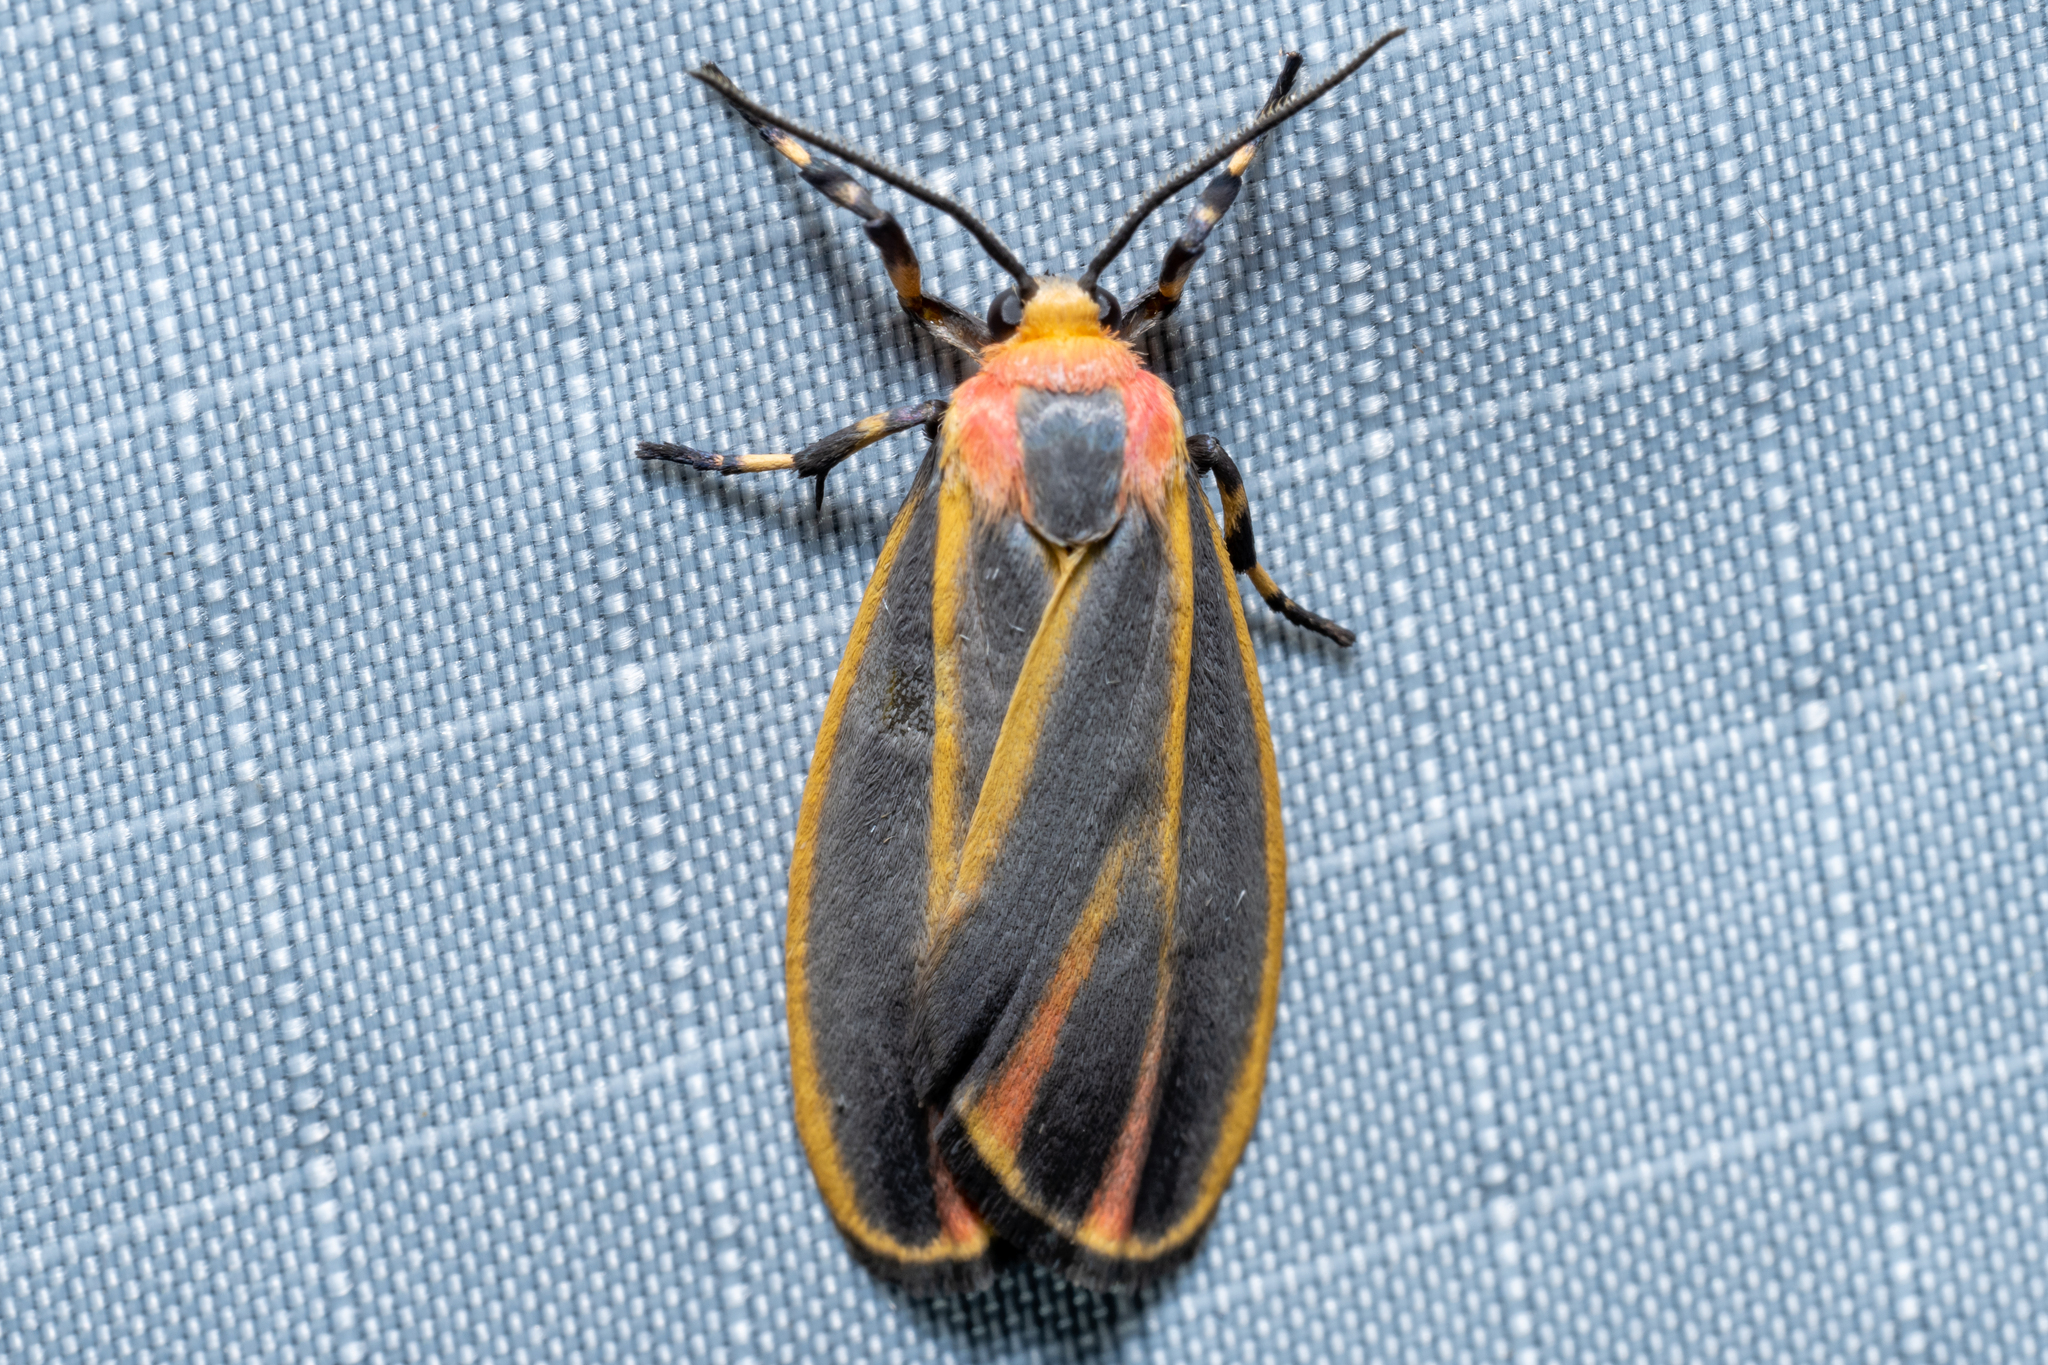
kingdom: Animalia
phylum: Arthropoda
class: Insecta
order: Lepidoptera
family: Erebidae
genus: Hypoprepia
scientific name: Hypoprepia fucosa
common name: Painted lichen moth
